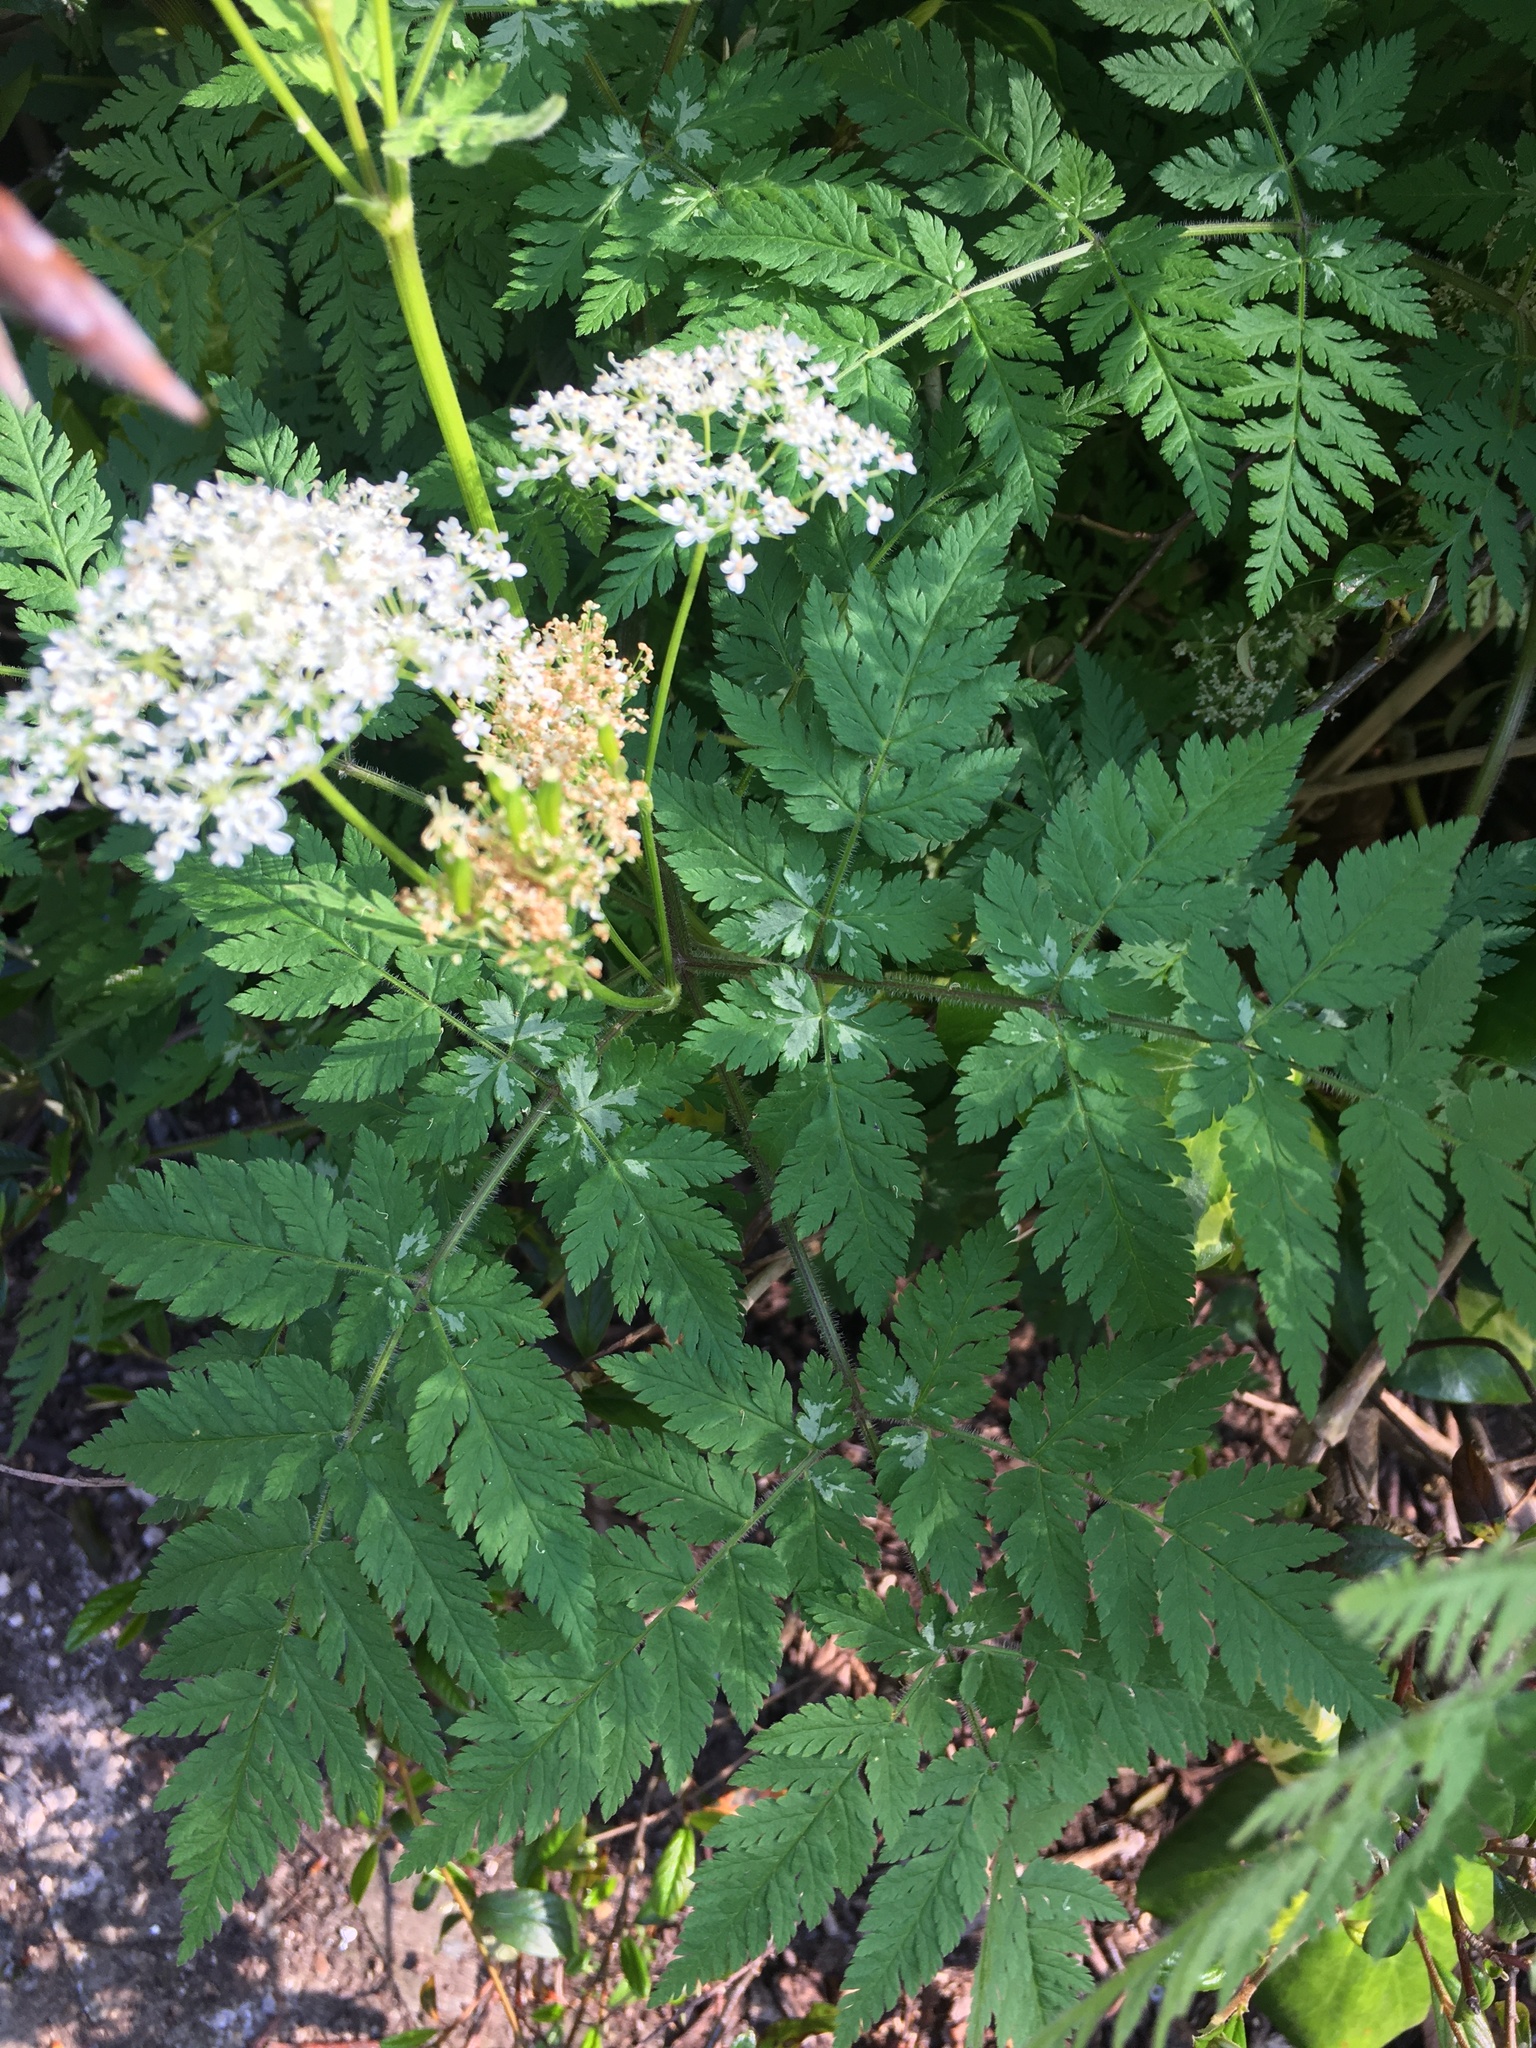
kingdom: Plantae
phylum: Tracheophyta
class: Magnoliopsida
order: Apiales
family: Apiaceae
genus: Myrrhis
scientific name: Myrrhis odorata
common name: Sweet cicely
